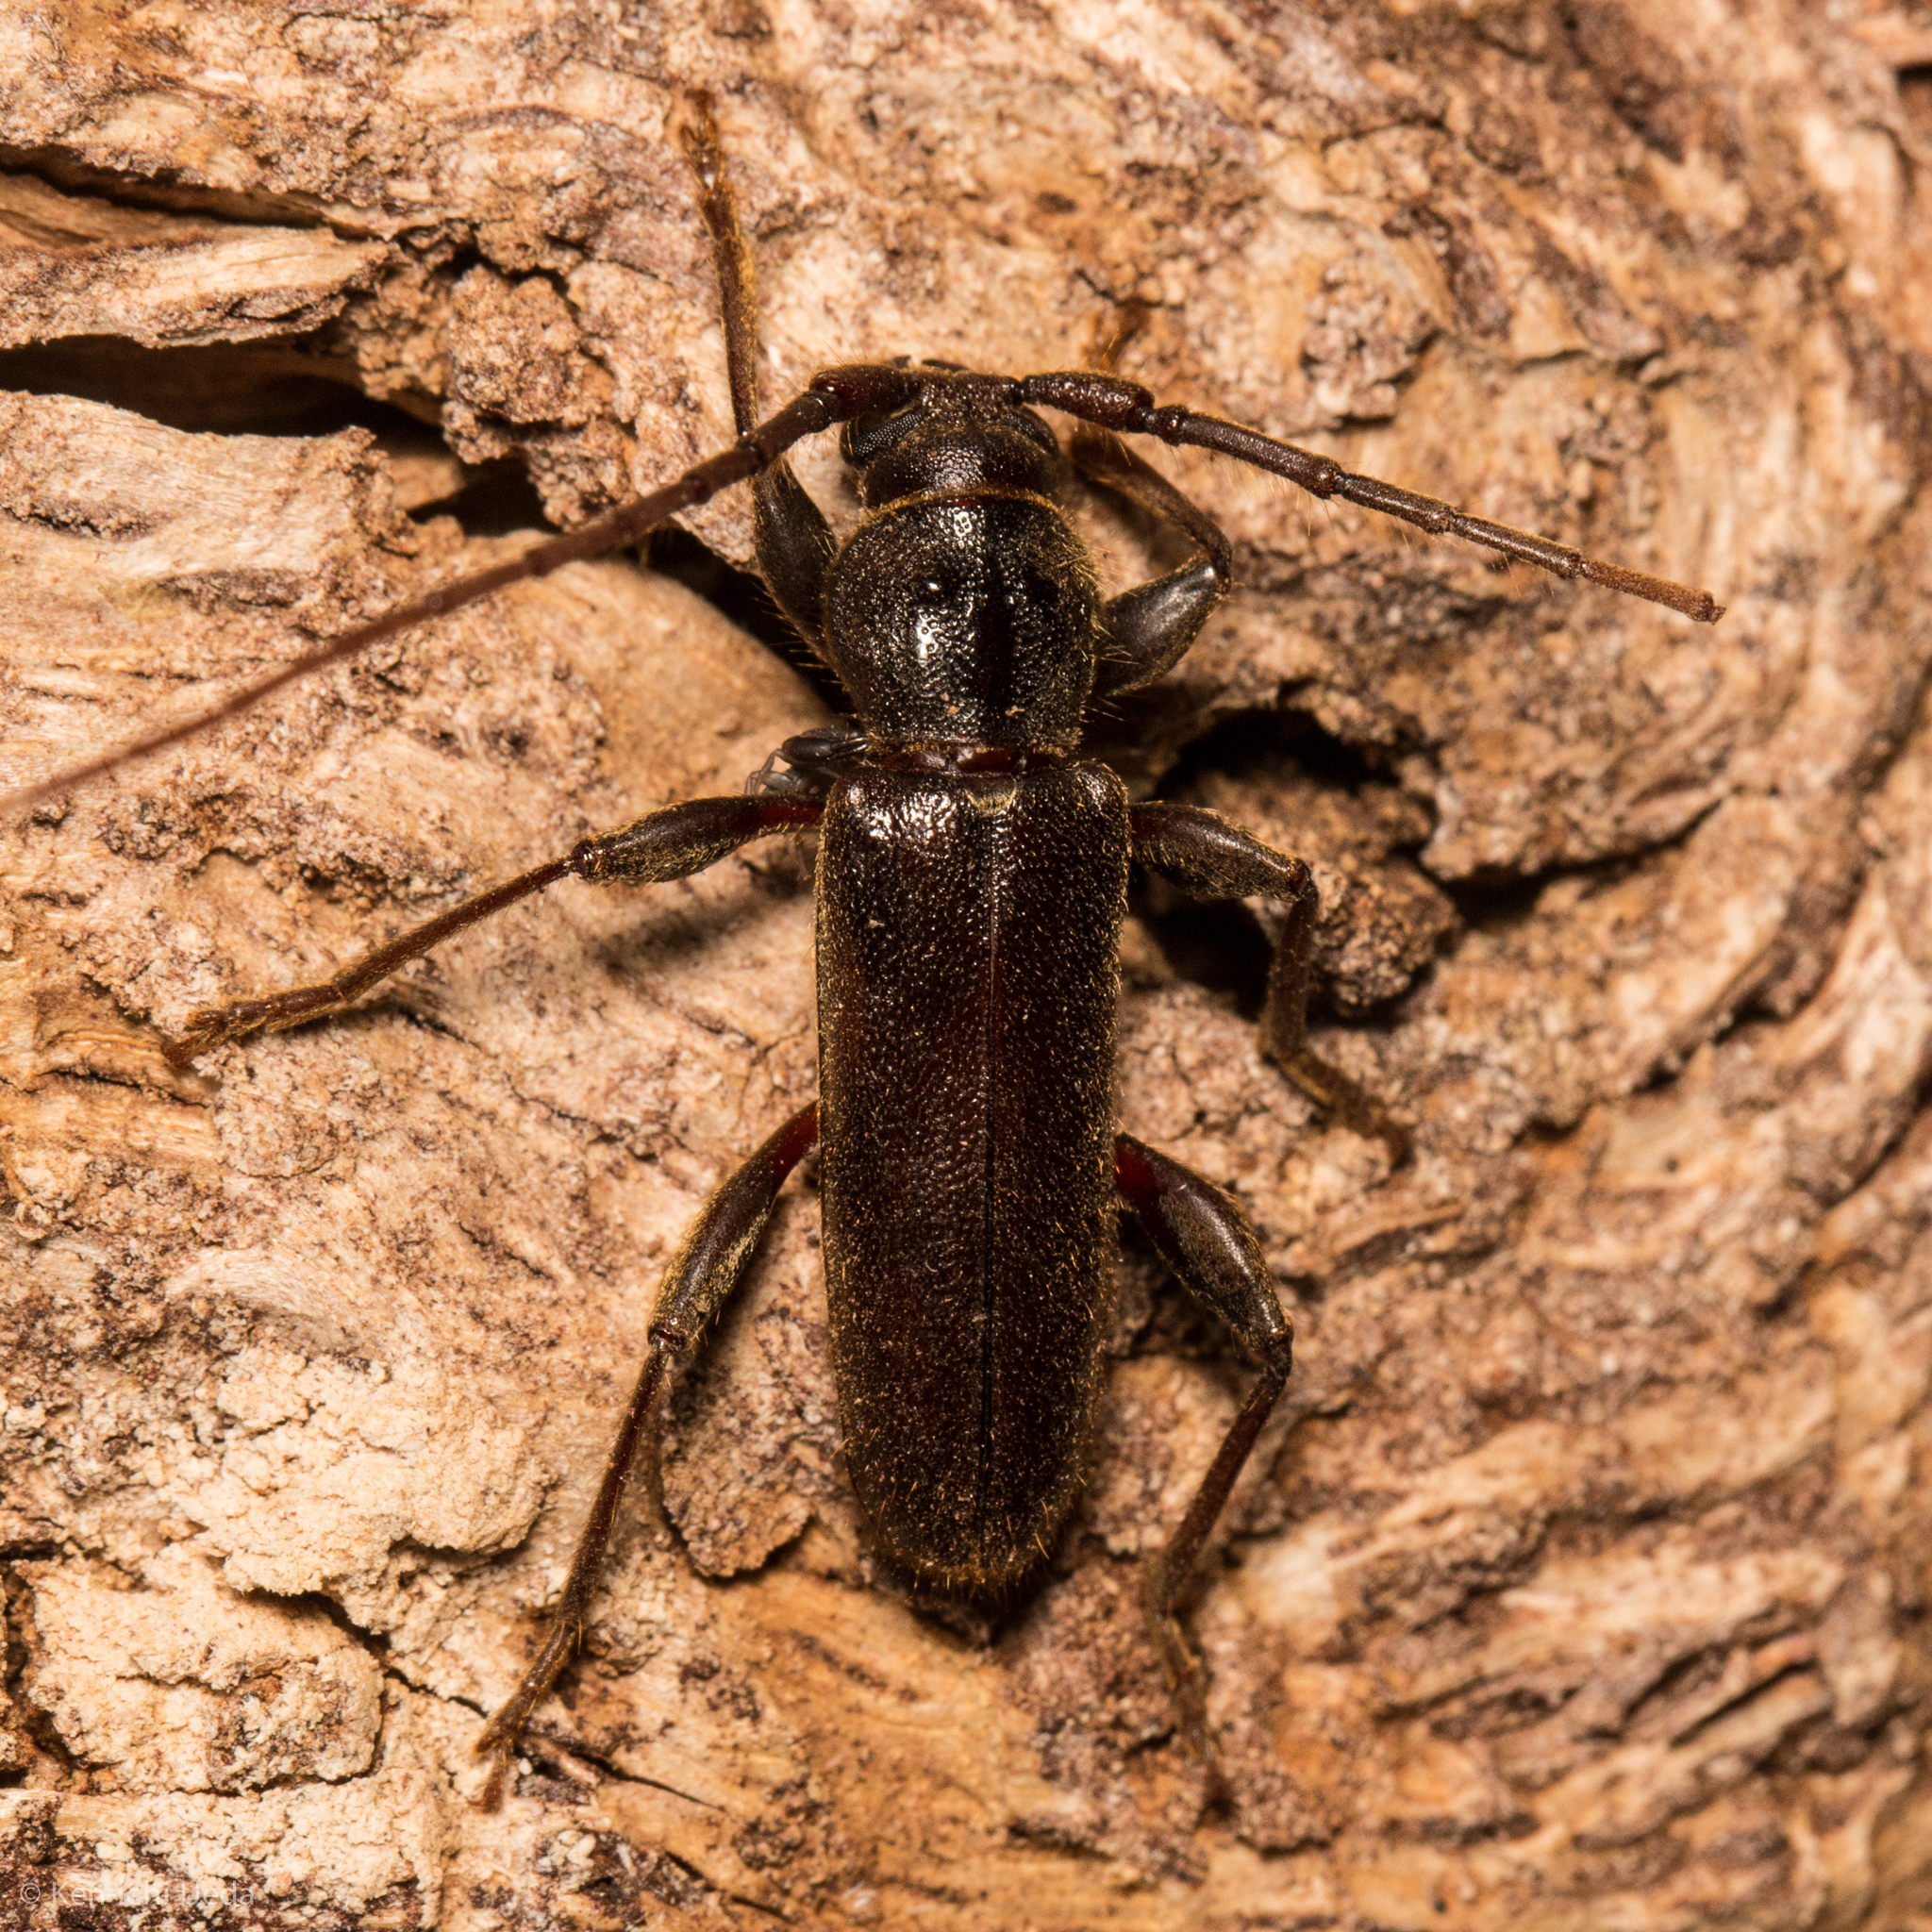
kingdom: Animalia
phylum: Arthropoda
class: Insecta
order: Coleoptera
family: Cerambycidae
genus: Meganoplium
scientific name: Meganoplium imbelle
